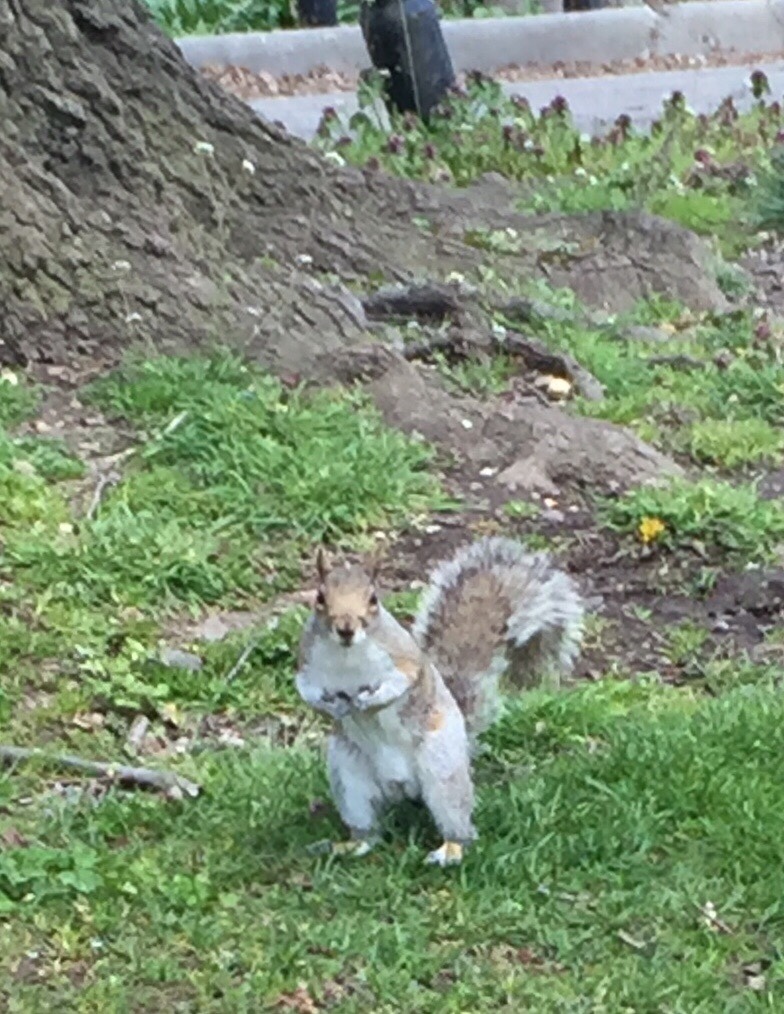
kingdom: Animalia
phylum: Chordata
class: Mammalia
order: Rodentia
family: Sciuridae
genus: Sciurus
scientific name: Sciurus carolinensis
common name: Eastern gray squirrel
